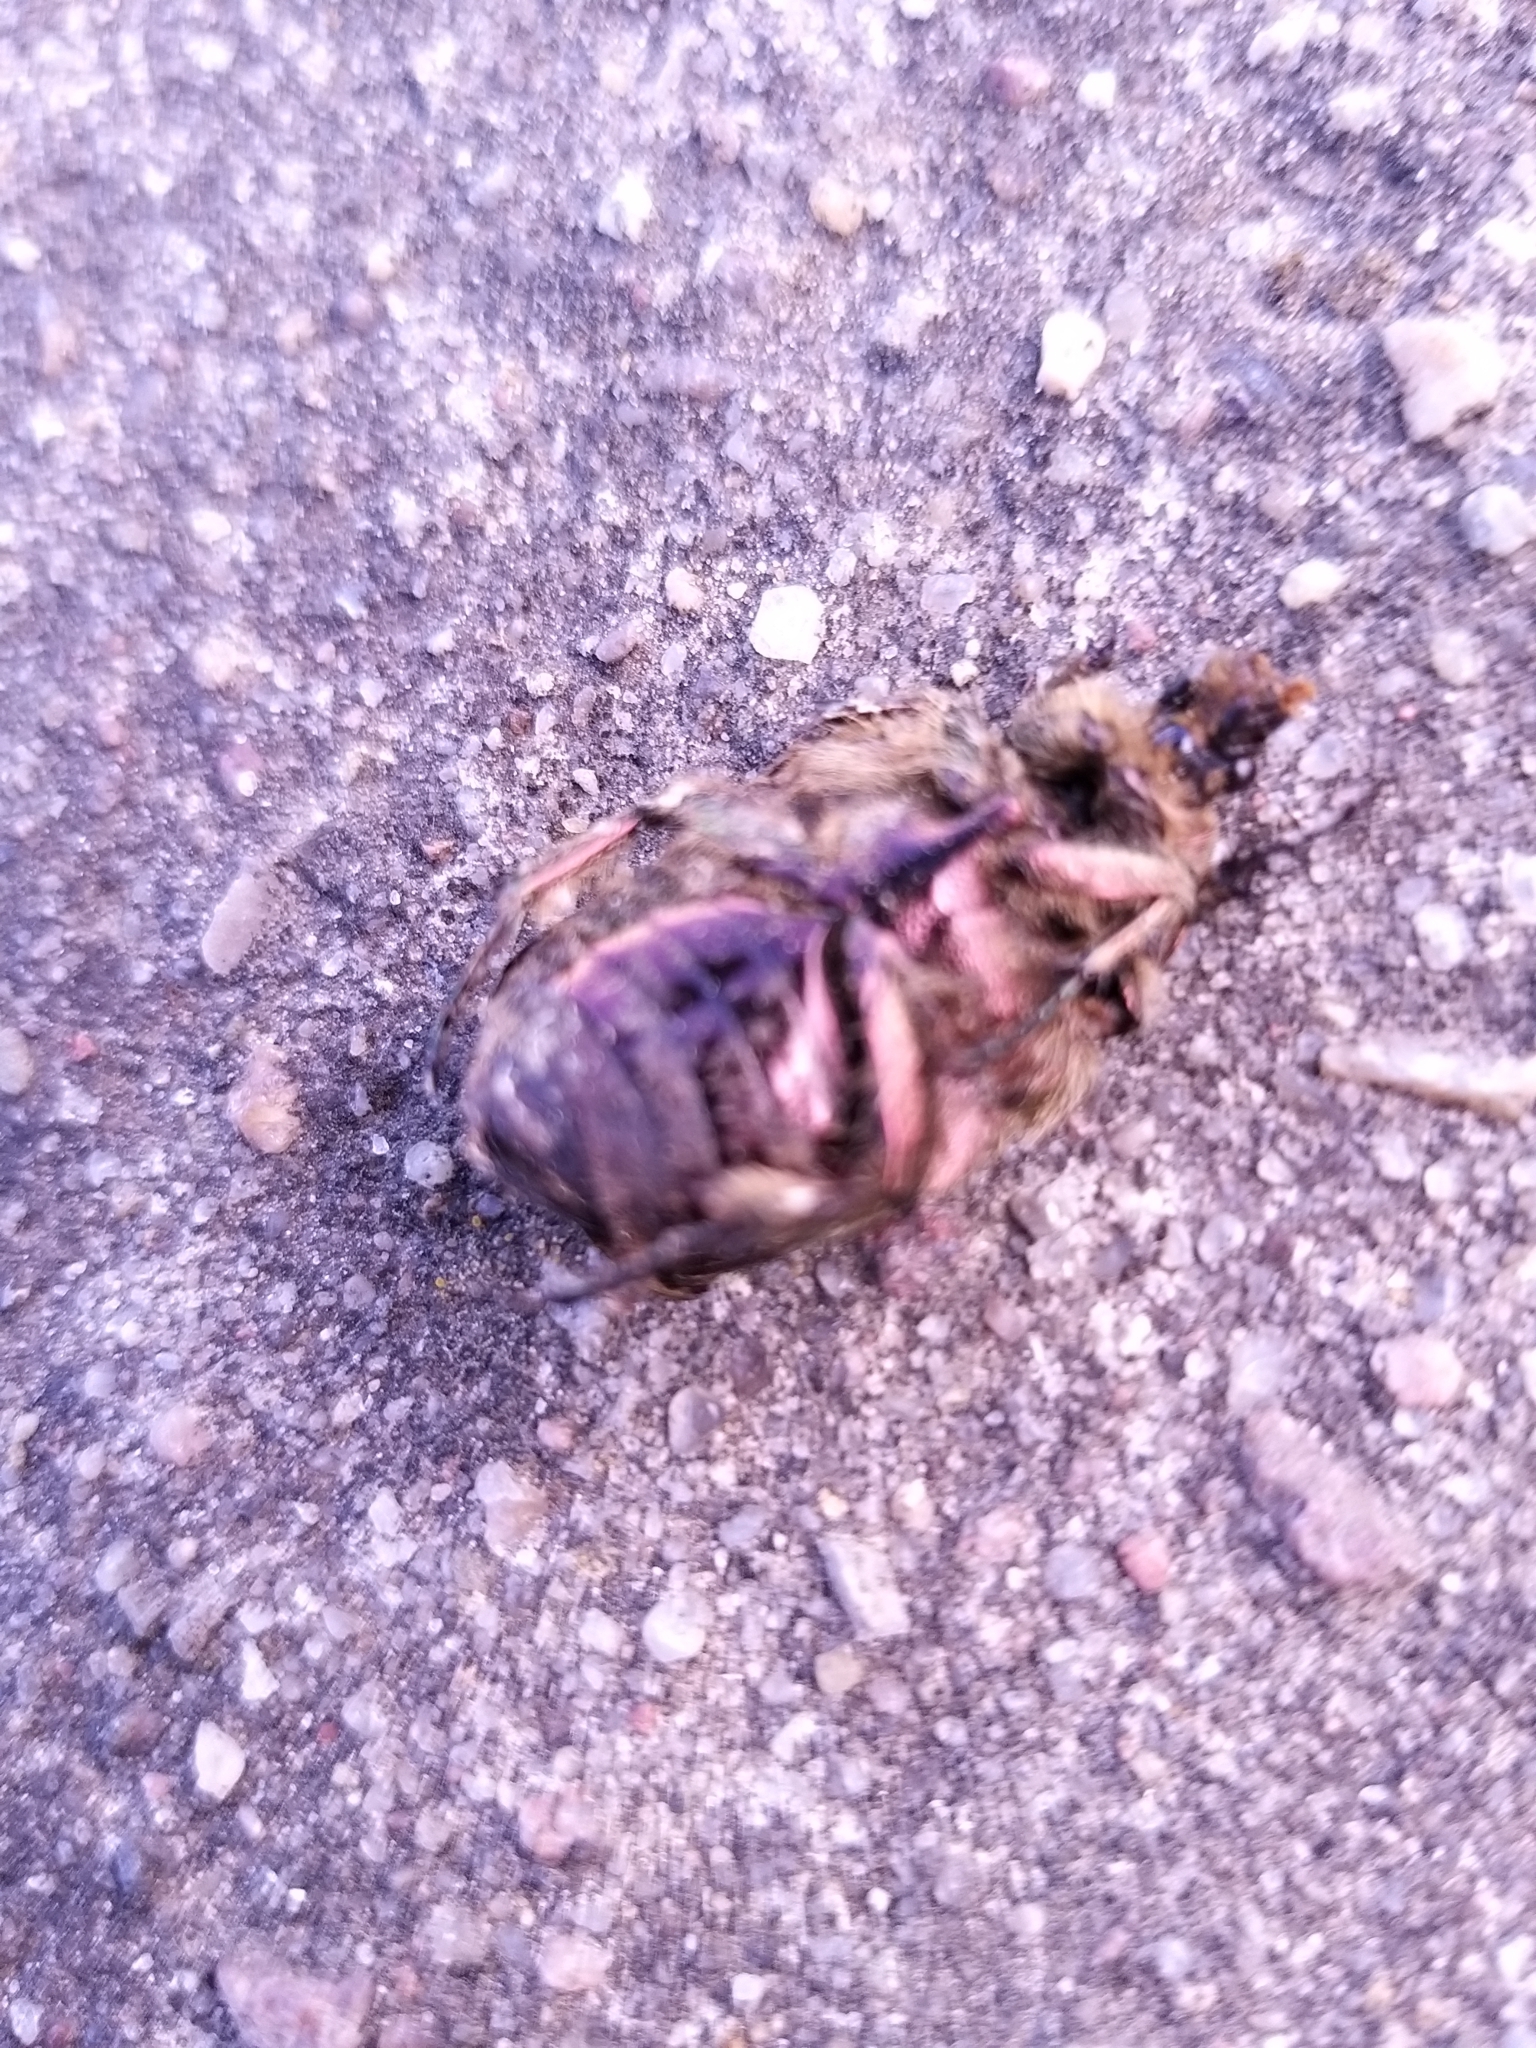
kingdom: Animalia
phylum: Arthropoda
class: Insecta
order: Coleoptera
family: Scarabaeidae
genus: Cetonia
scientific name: Cetonia aurata
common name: Rose chafer
